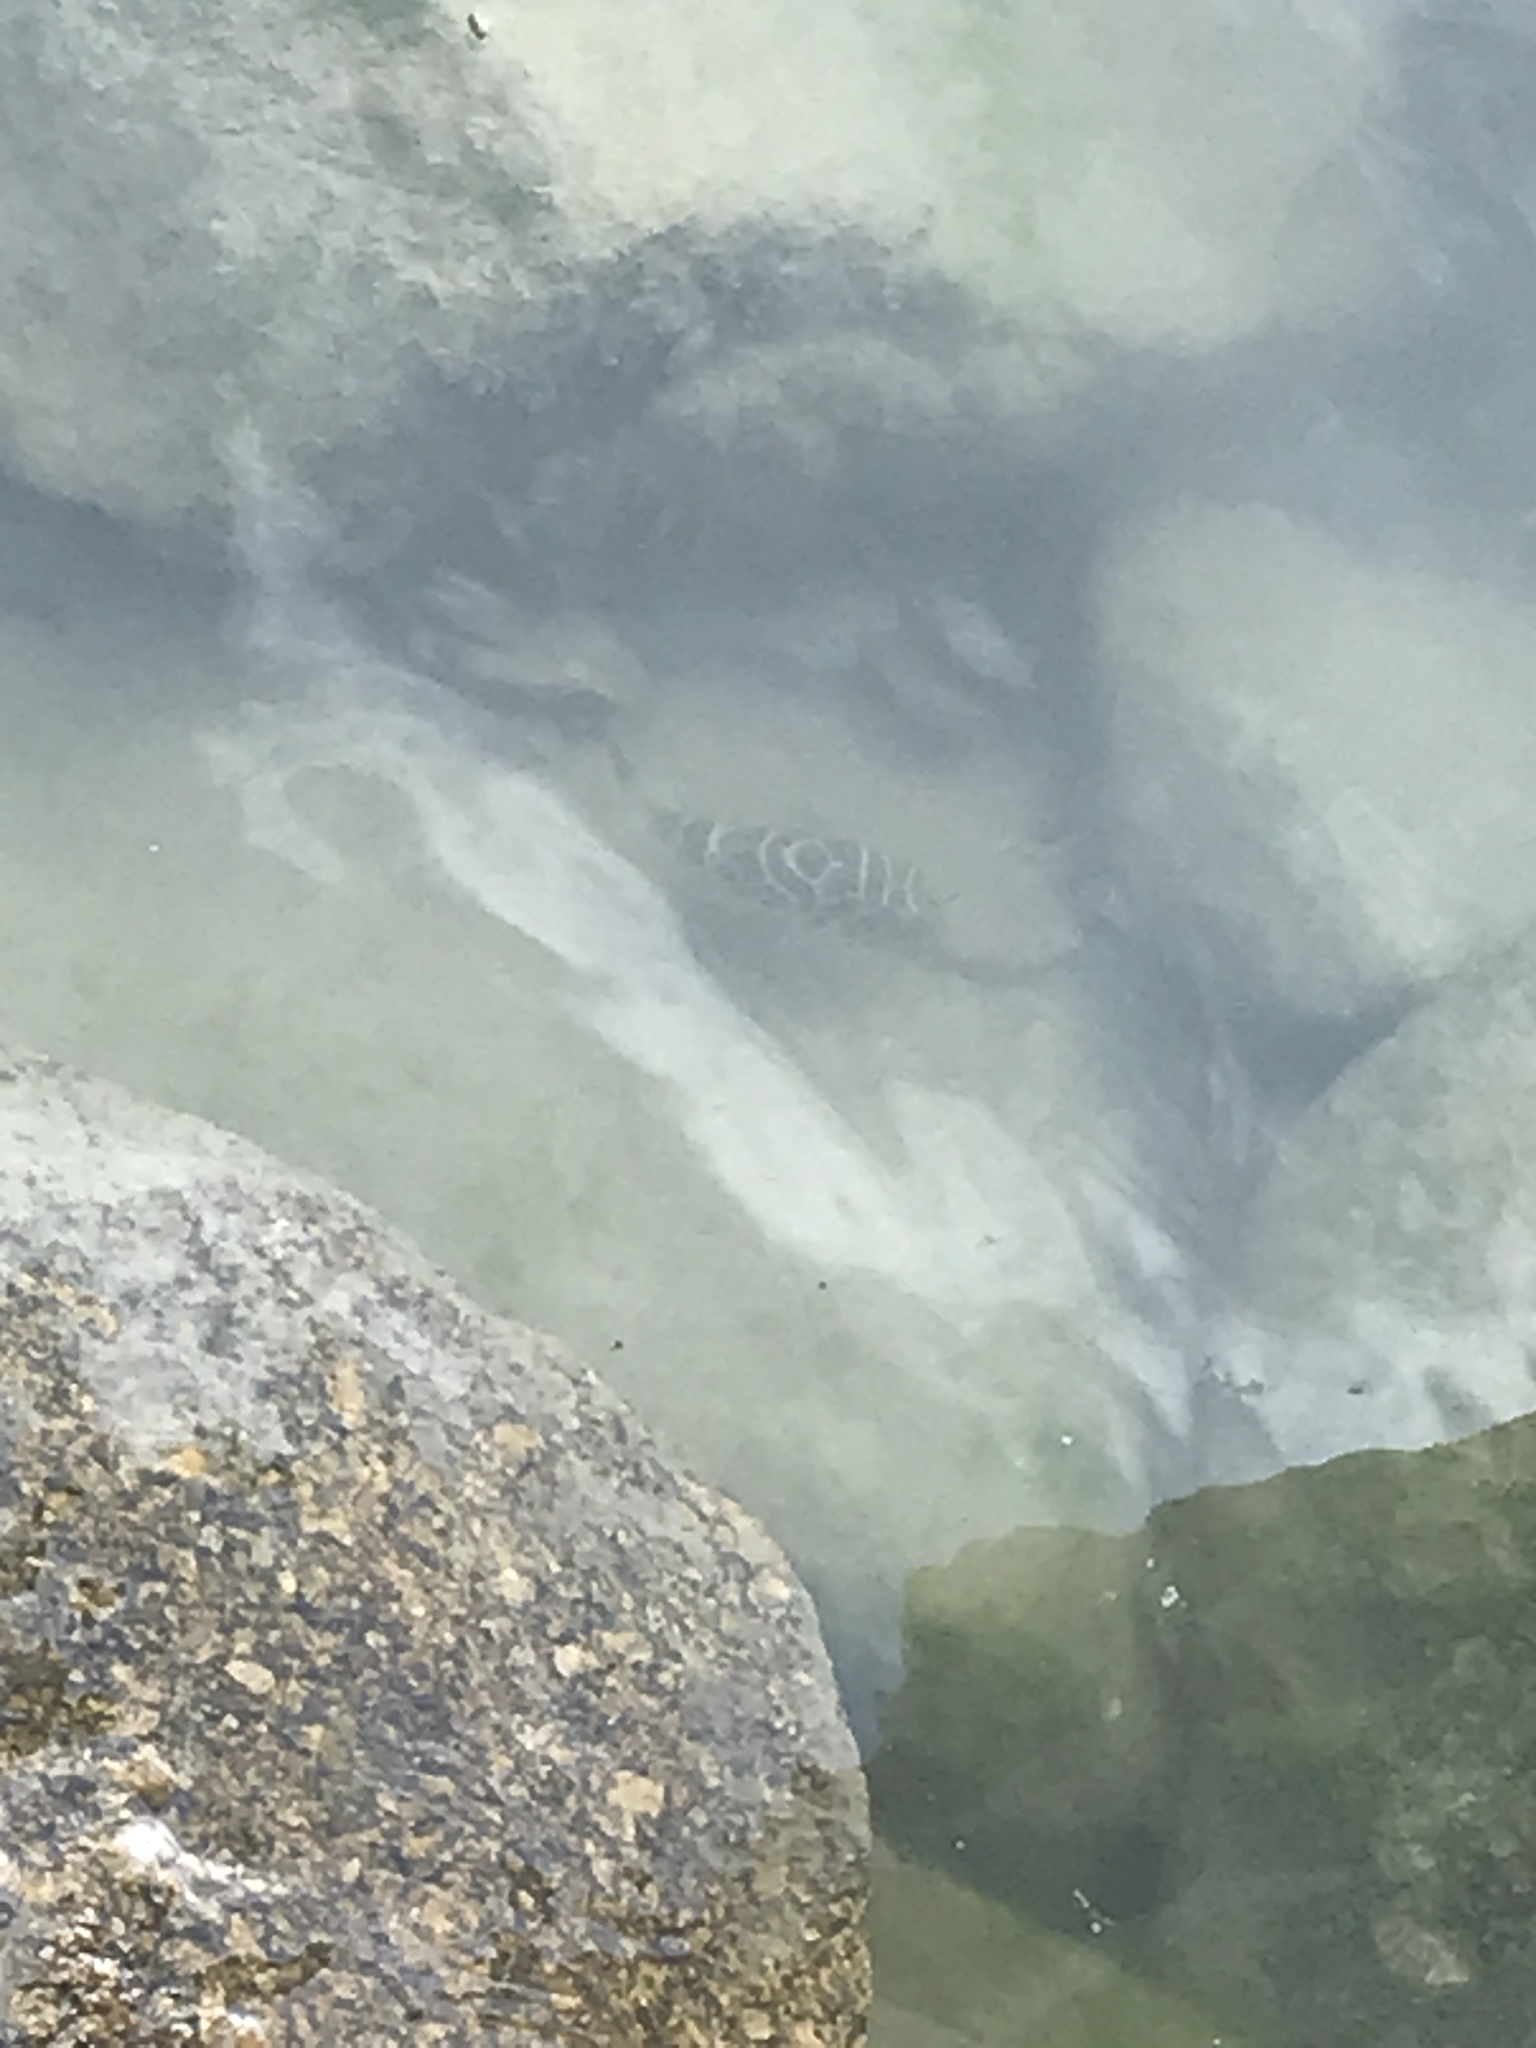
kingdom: Animalia
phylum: Chordata
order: Tetraodontiformes
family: Tetraodontidae
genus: Sphoeroides
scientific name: Sphoeroides testudineus
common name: Checkered puffer
